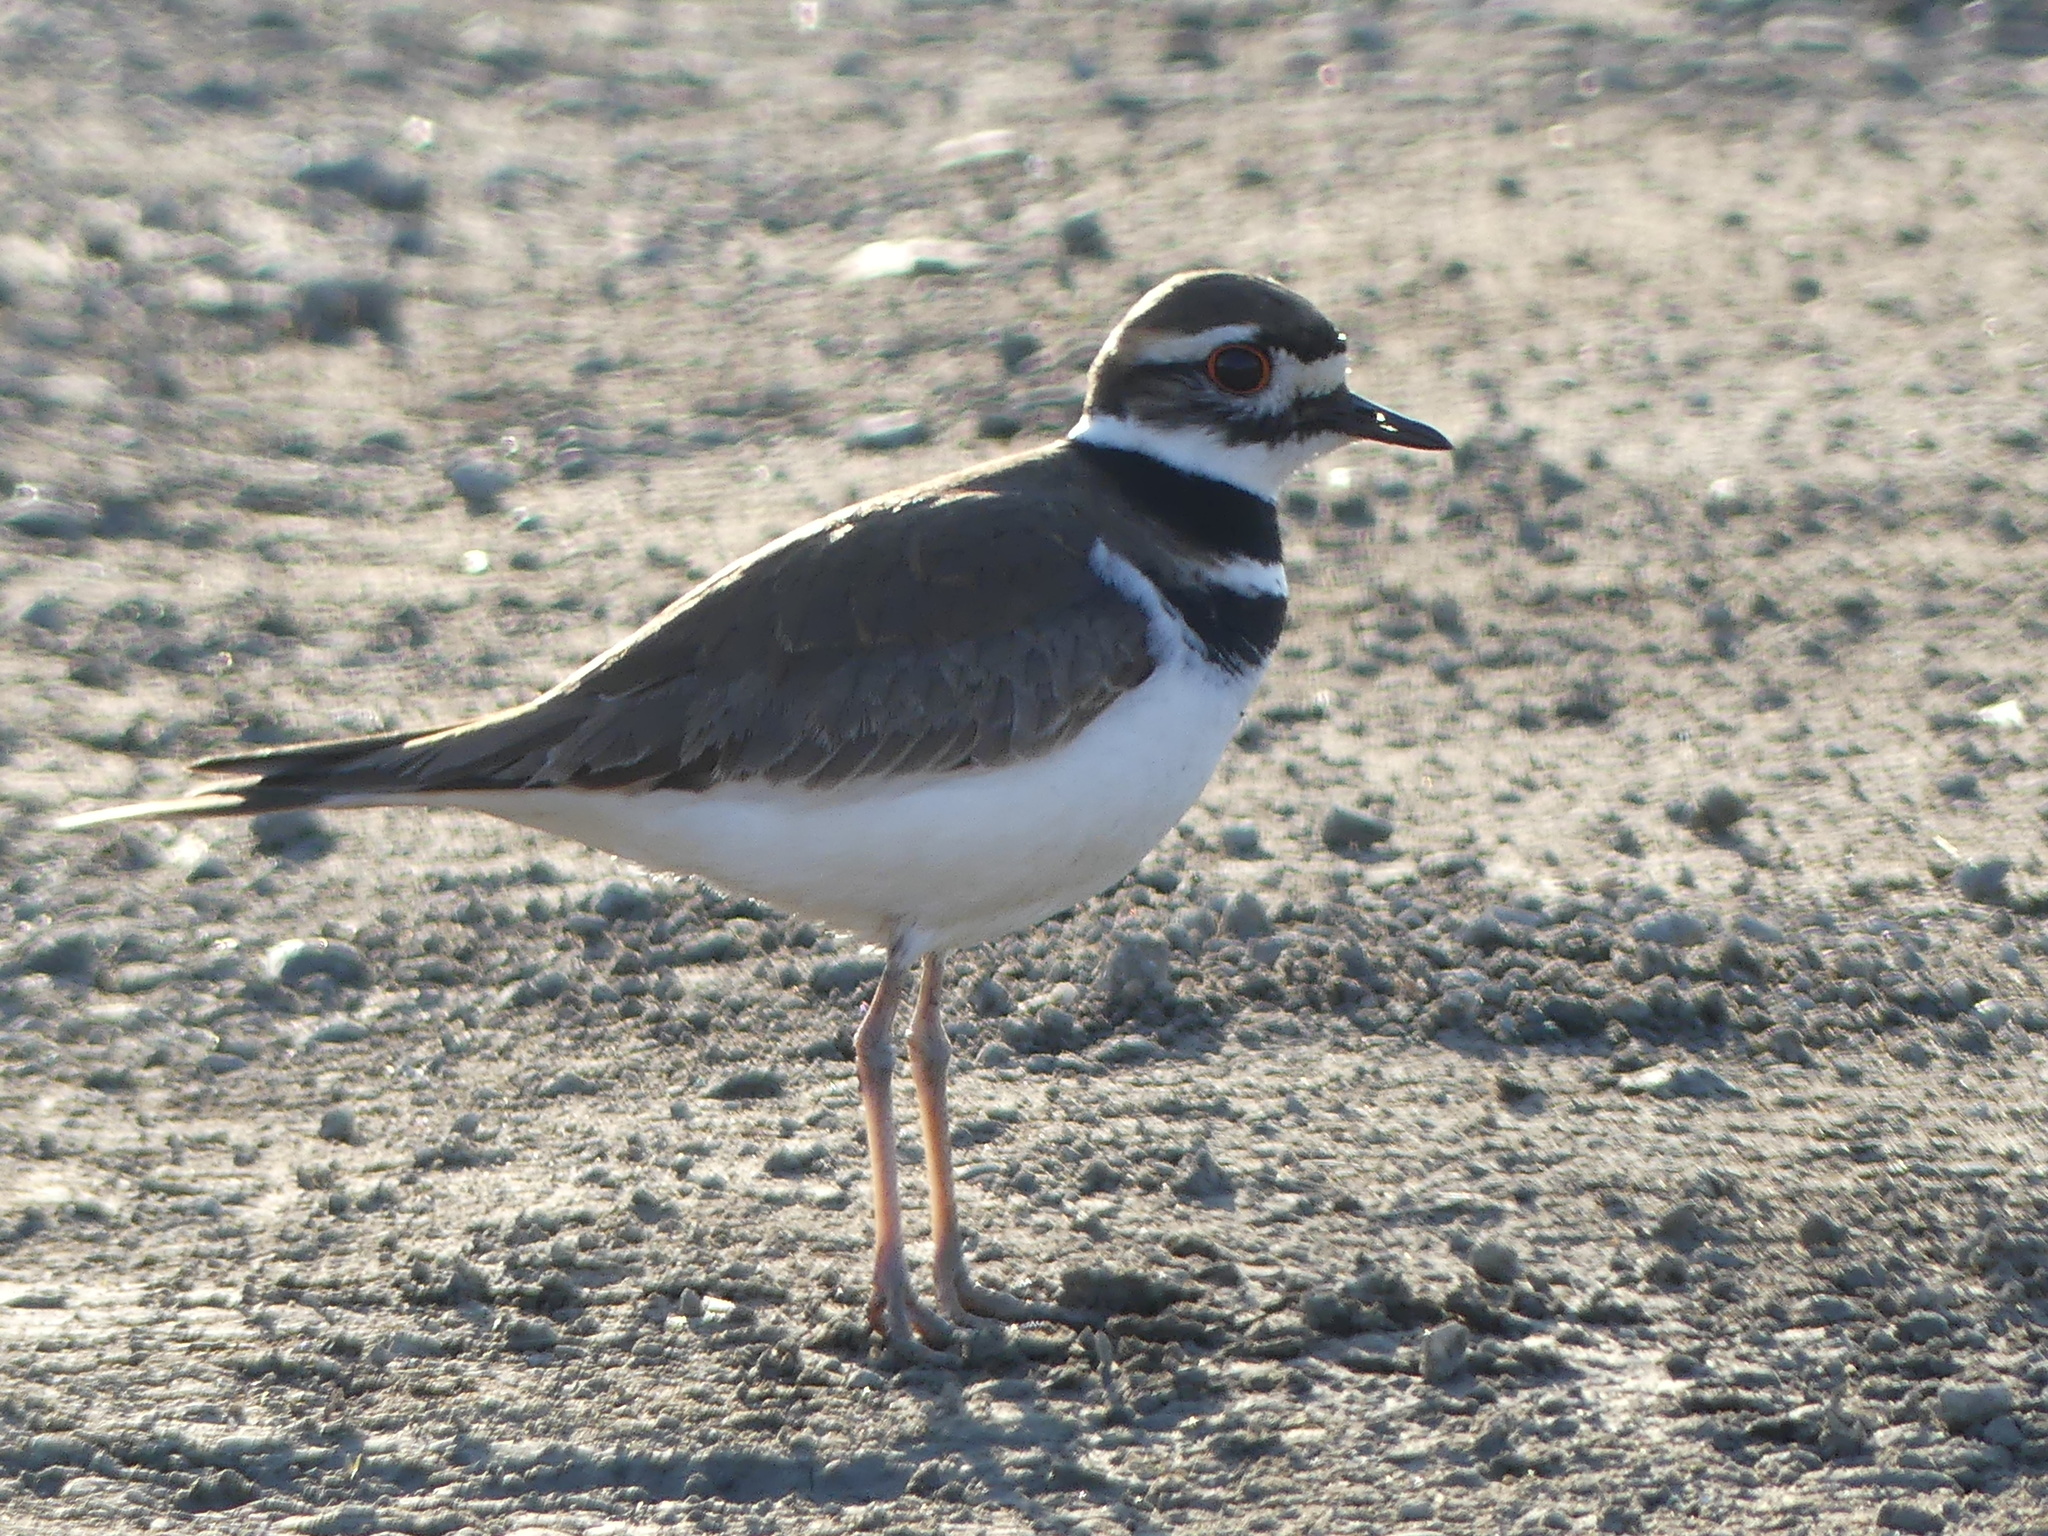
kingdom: Animalia
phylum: Chordata
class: Aves
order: Charadriiformes
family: Charadriidae
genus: Charadrius
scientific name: Charadrius vociferus
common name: Killdeer
